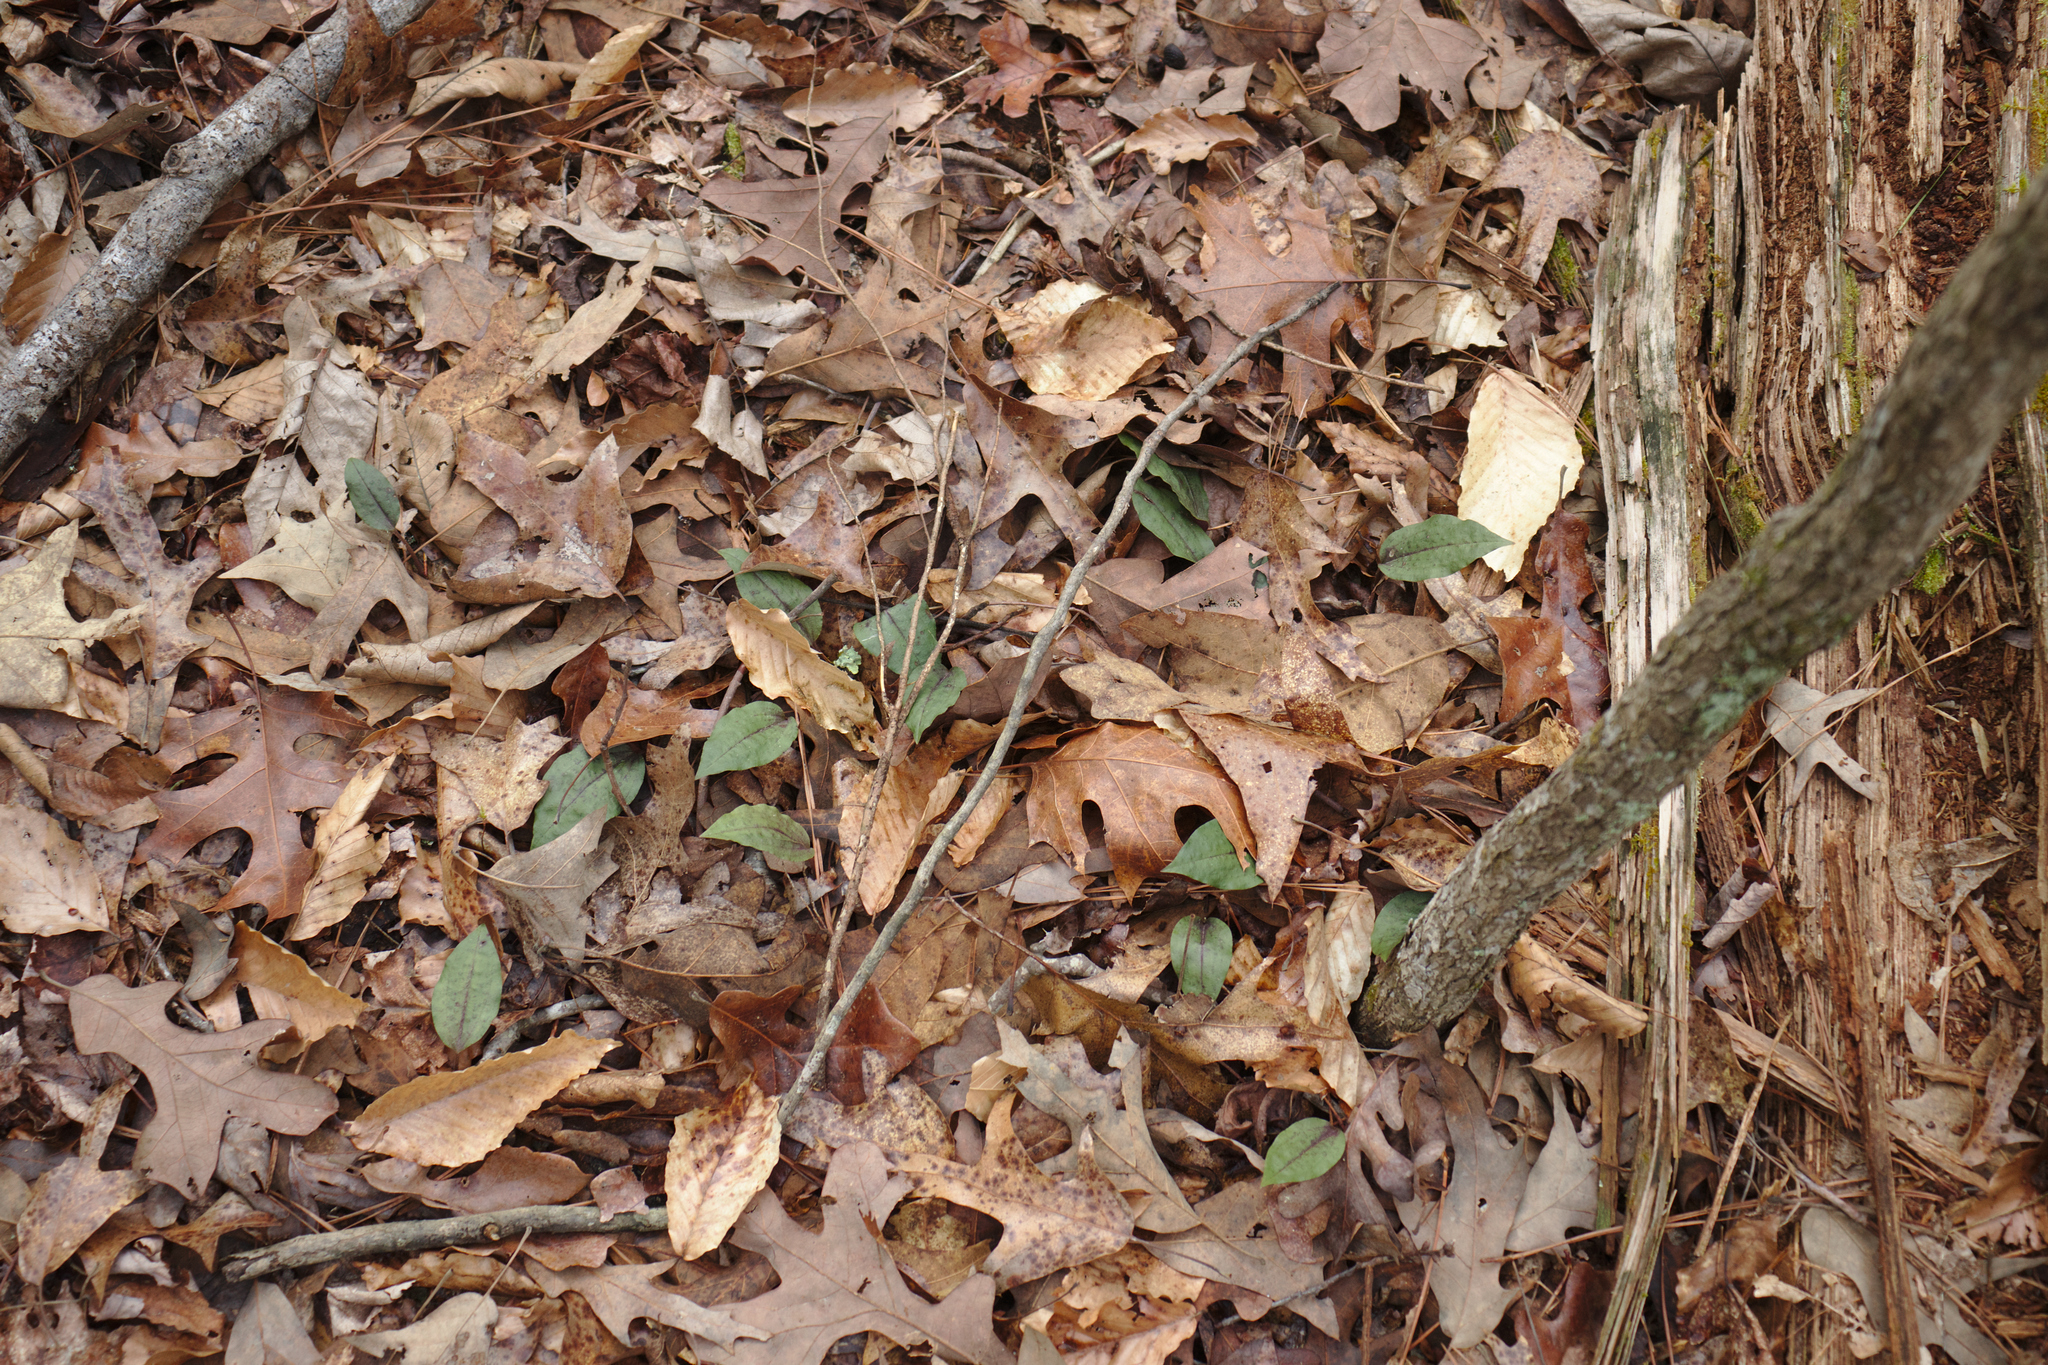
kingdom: Plantae
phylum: Tracheophyta
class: Liliopsida
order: Asparagales
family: Orchidaceae
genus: Tipularia
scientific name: Tipularia discolor
